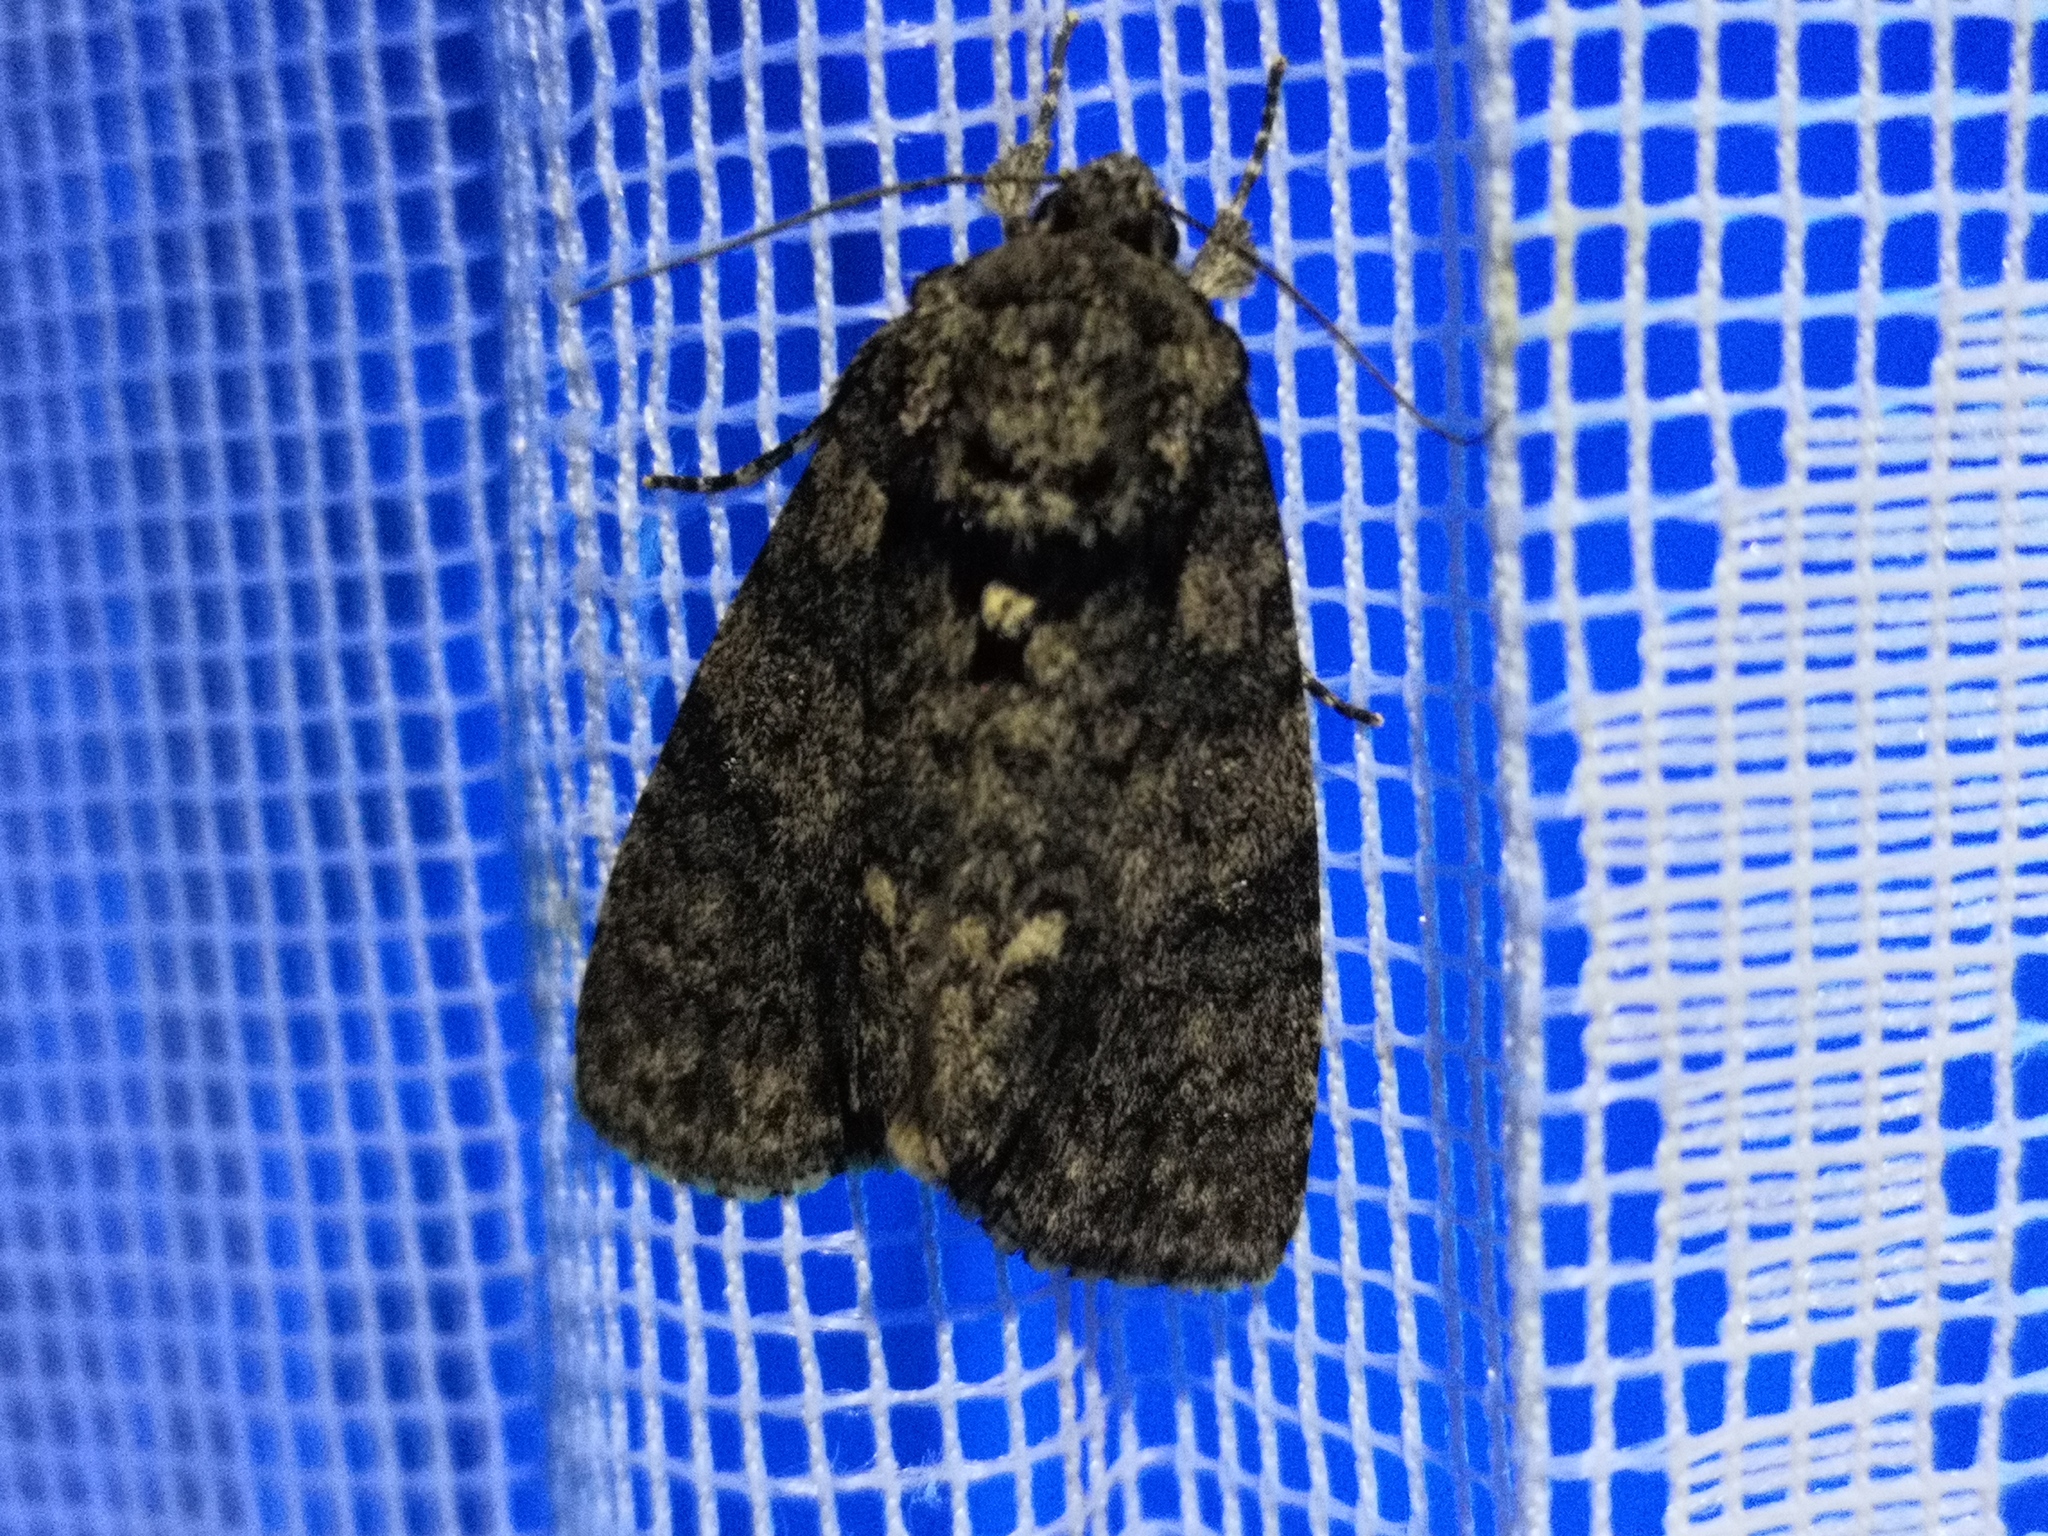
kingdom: Animalia
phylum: Arthropoda
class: Insecta
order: Lepidoptera
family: Noctuidae
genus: Acronicta
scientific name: Acronicta rumicis
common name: Knot grass
